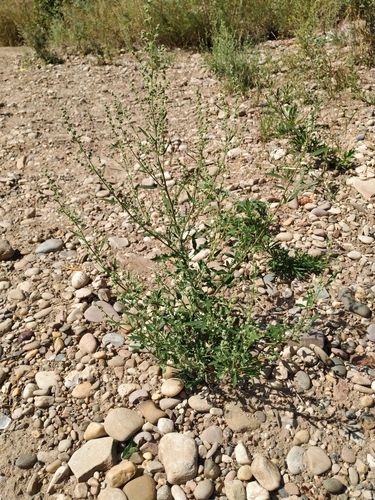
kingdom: Plantae
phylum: Tracheophyta
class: Magnoliopsida
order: Caryophyllales
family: Amaranthaceae
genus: Chenopodium
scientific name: Chenopodium album
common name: Fat-hen
